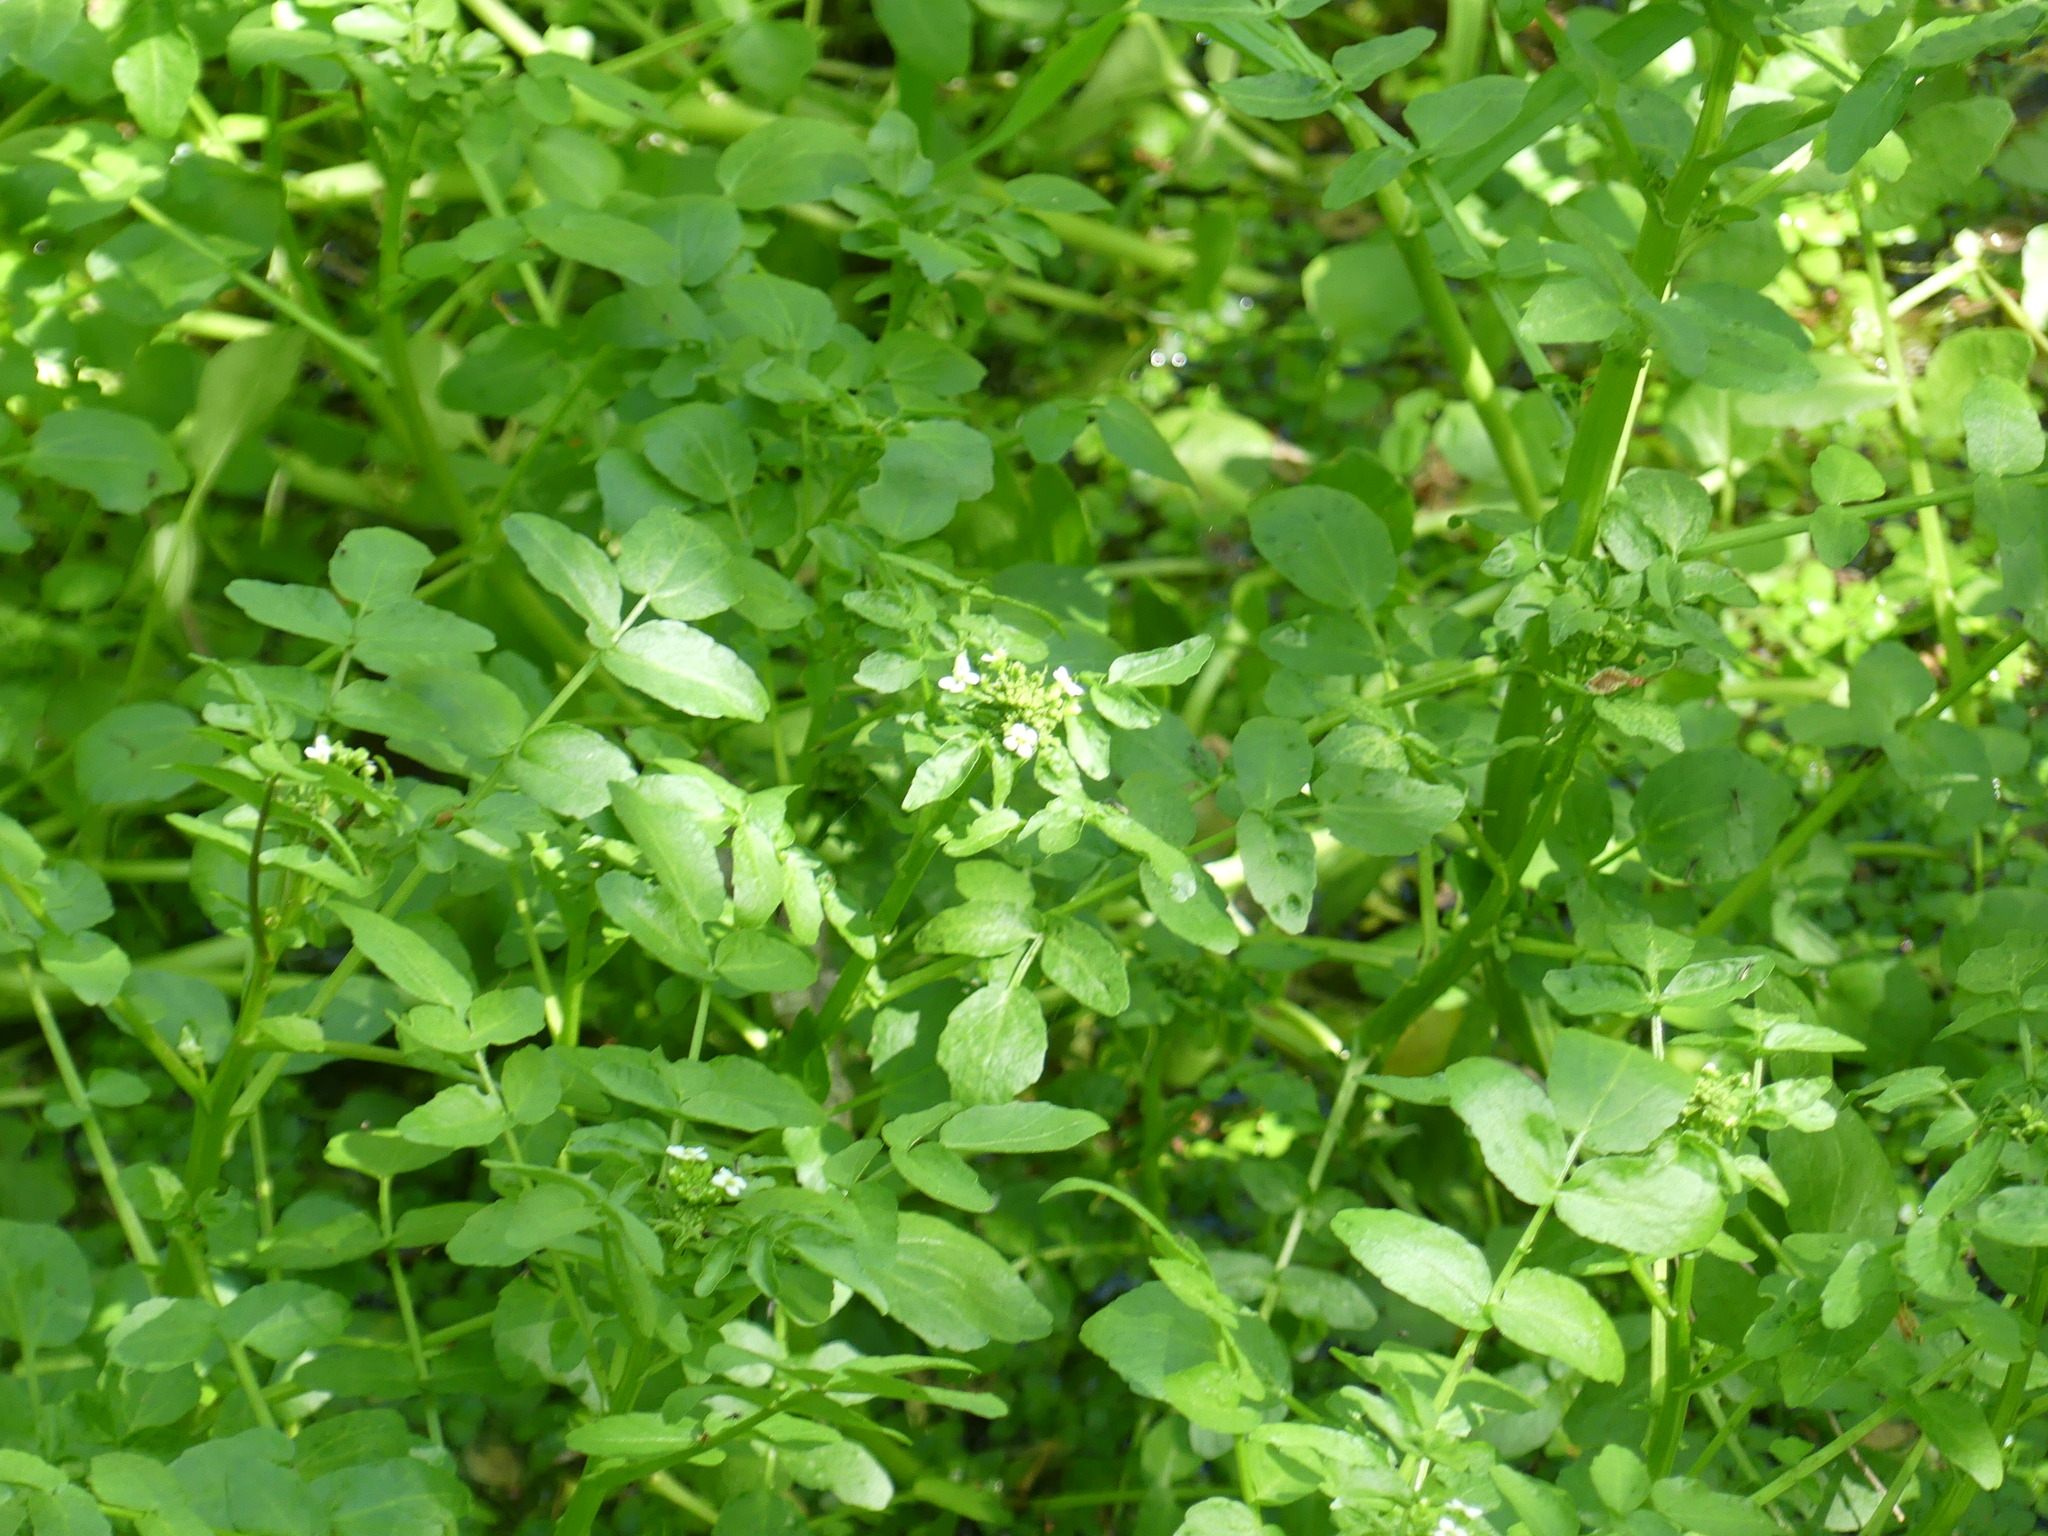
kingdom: Plantae
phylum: Tracheophyta
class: Magnoliopsida
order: Brassicales
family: Brassicaceae
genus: Nasturtium
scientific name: Nasturtium officinale
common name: Watercress
